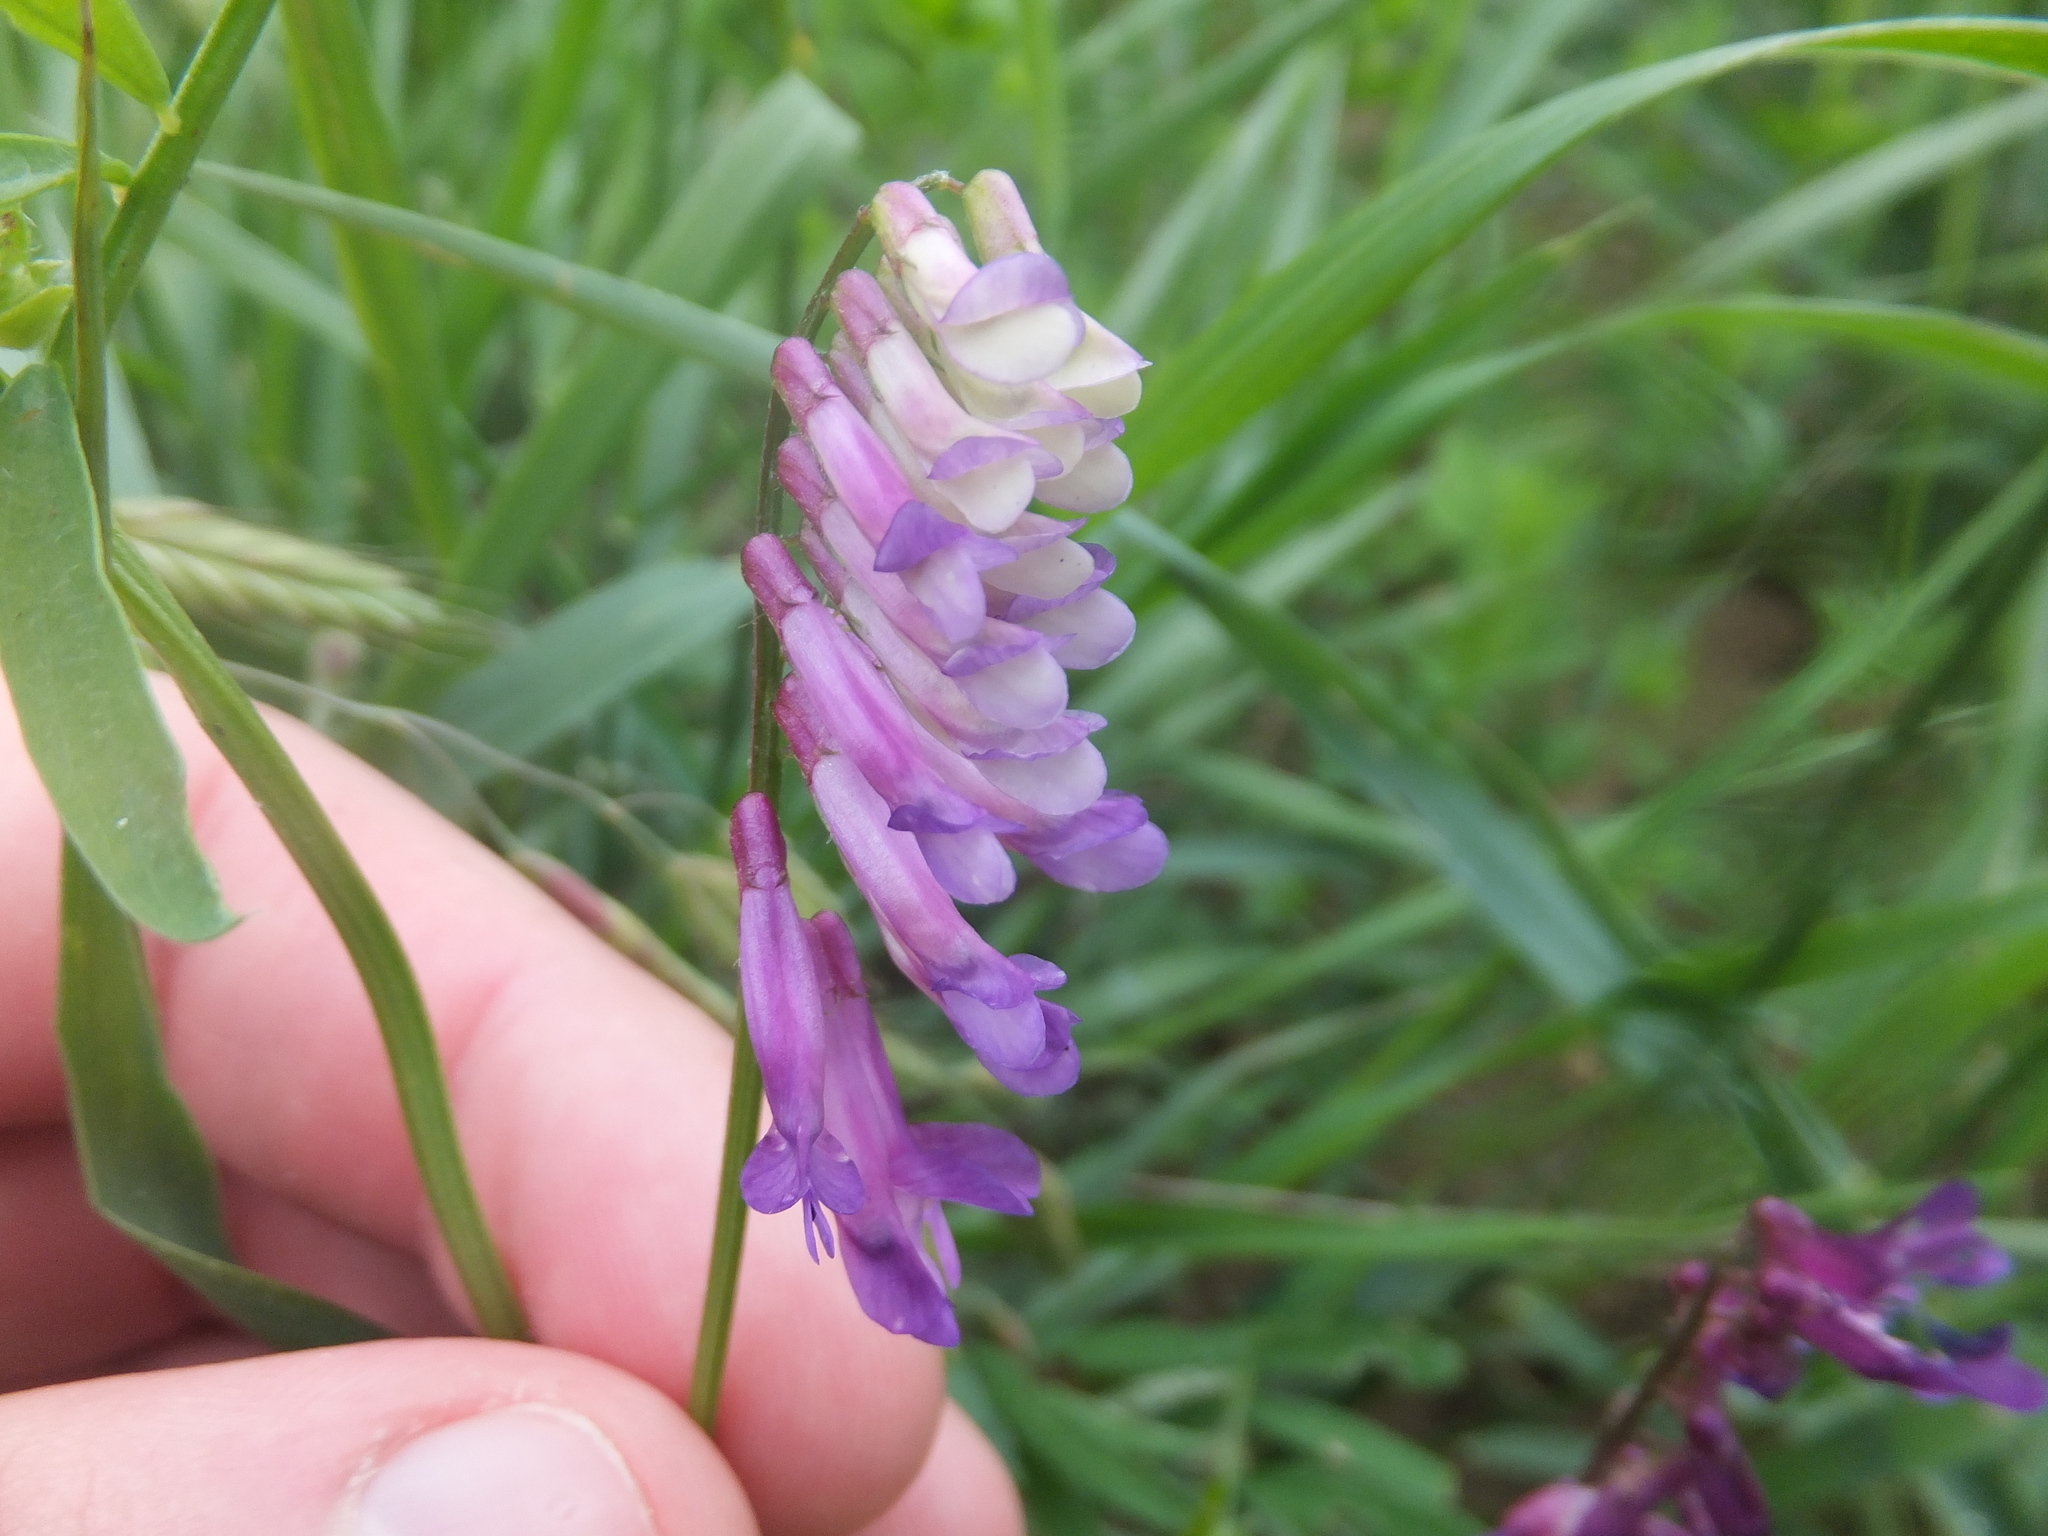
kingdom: Plantae
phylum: Tracheophyta
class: Magnoliopsida
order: Fabales
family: Fabaceae
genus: Vicia
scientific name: Vicia villosa
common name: Fodder vetch
